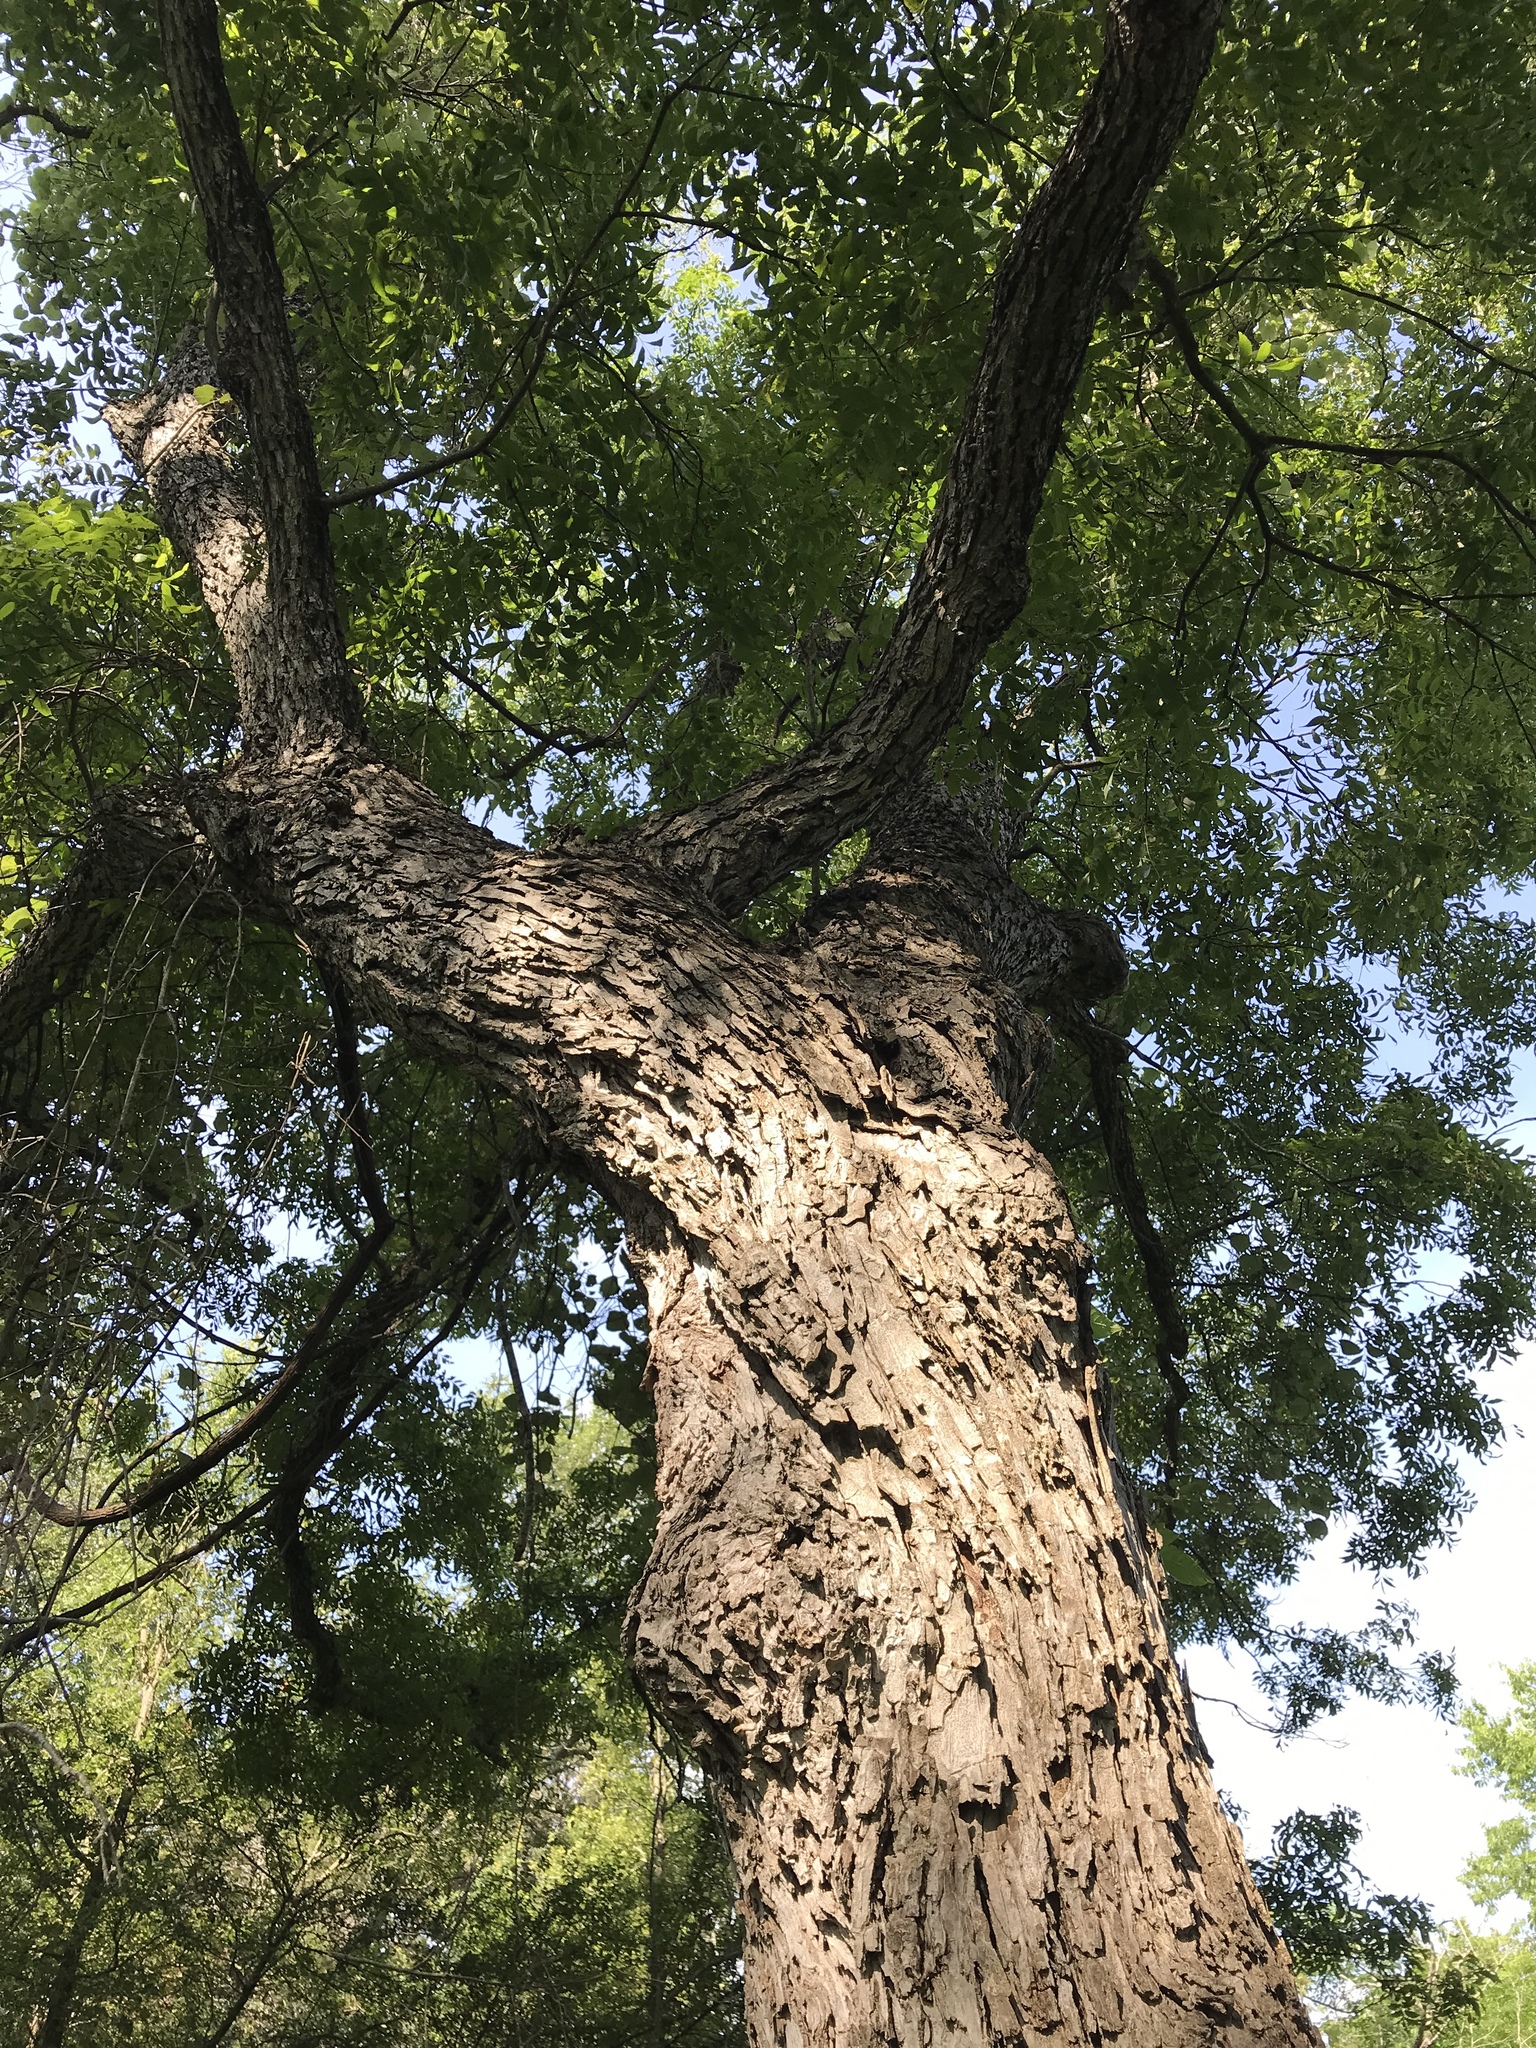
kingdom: Plantae
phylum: Tracheophyta
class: Magnoliopsida
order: Fagales
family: Juglandaceae
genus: Carya
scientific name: Carya illinoinensis
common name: Pecan
